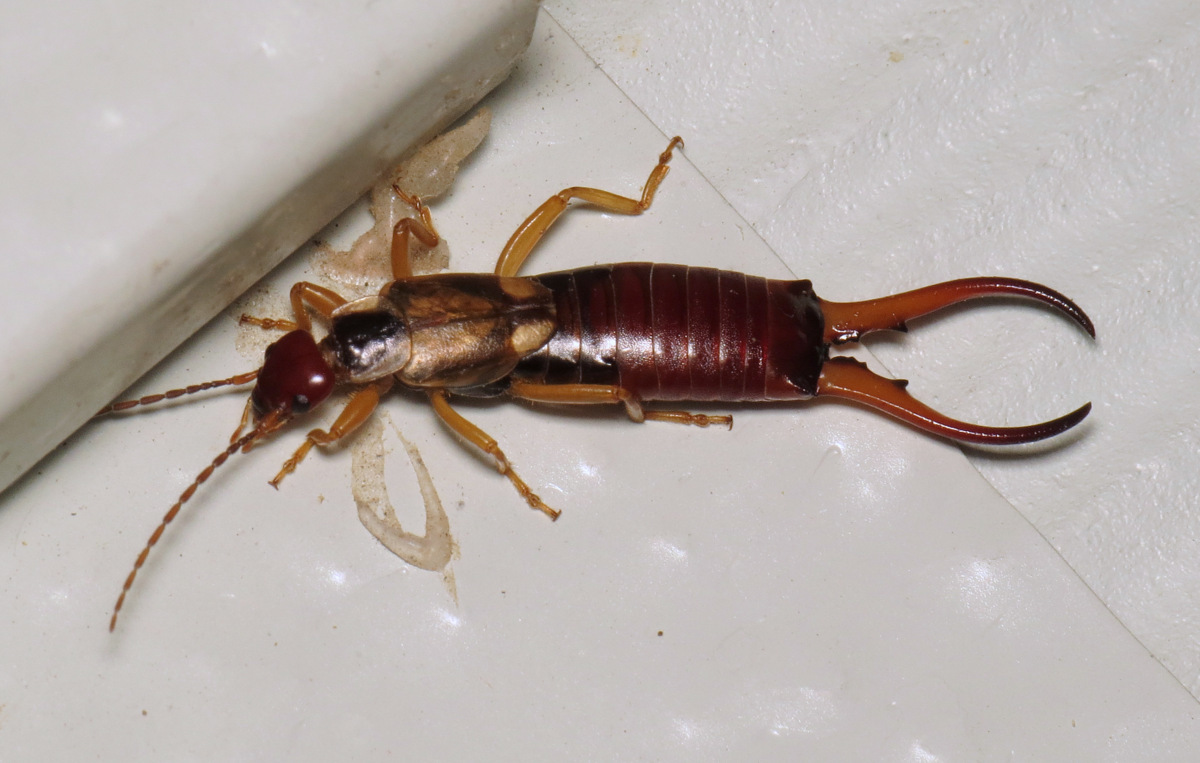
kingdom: Animalia
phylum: Arthropoda
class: Insecta
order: Dermaptera
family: Forficulidae
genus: Forficula
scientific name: Forficula
